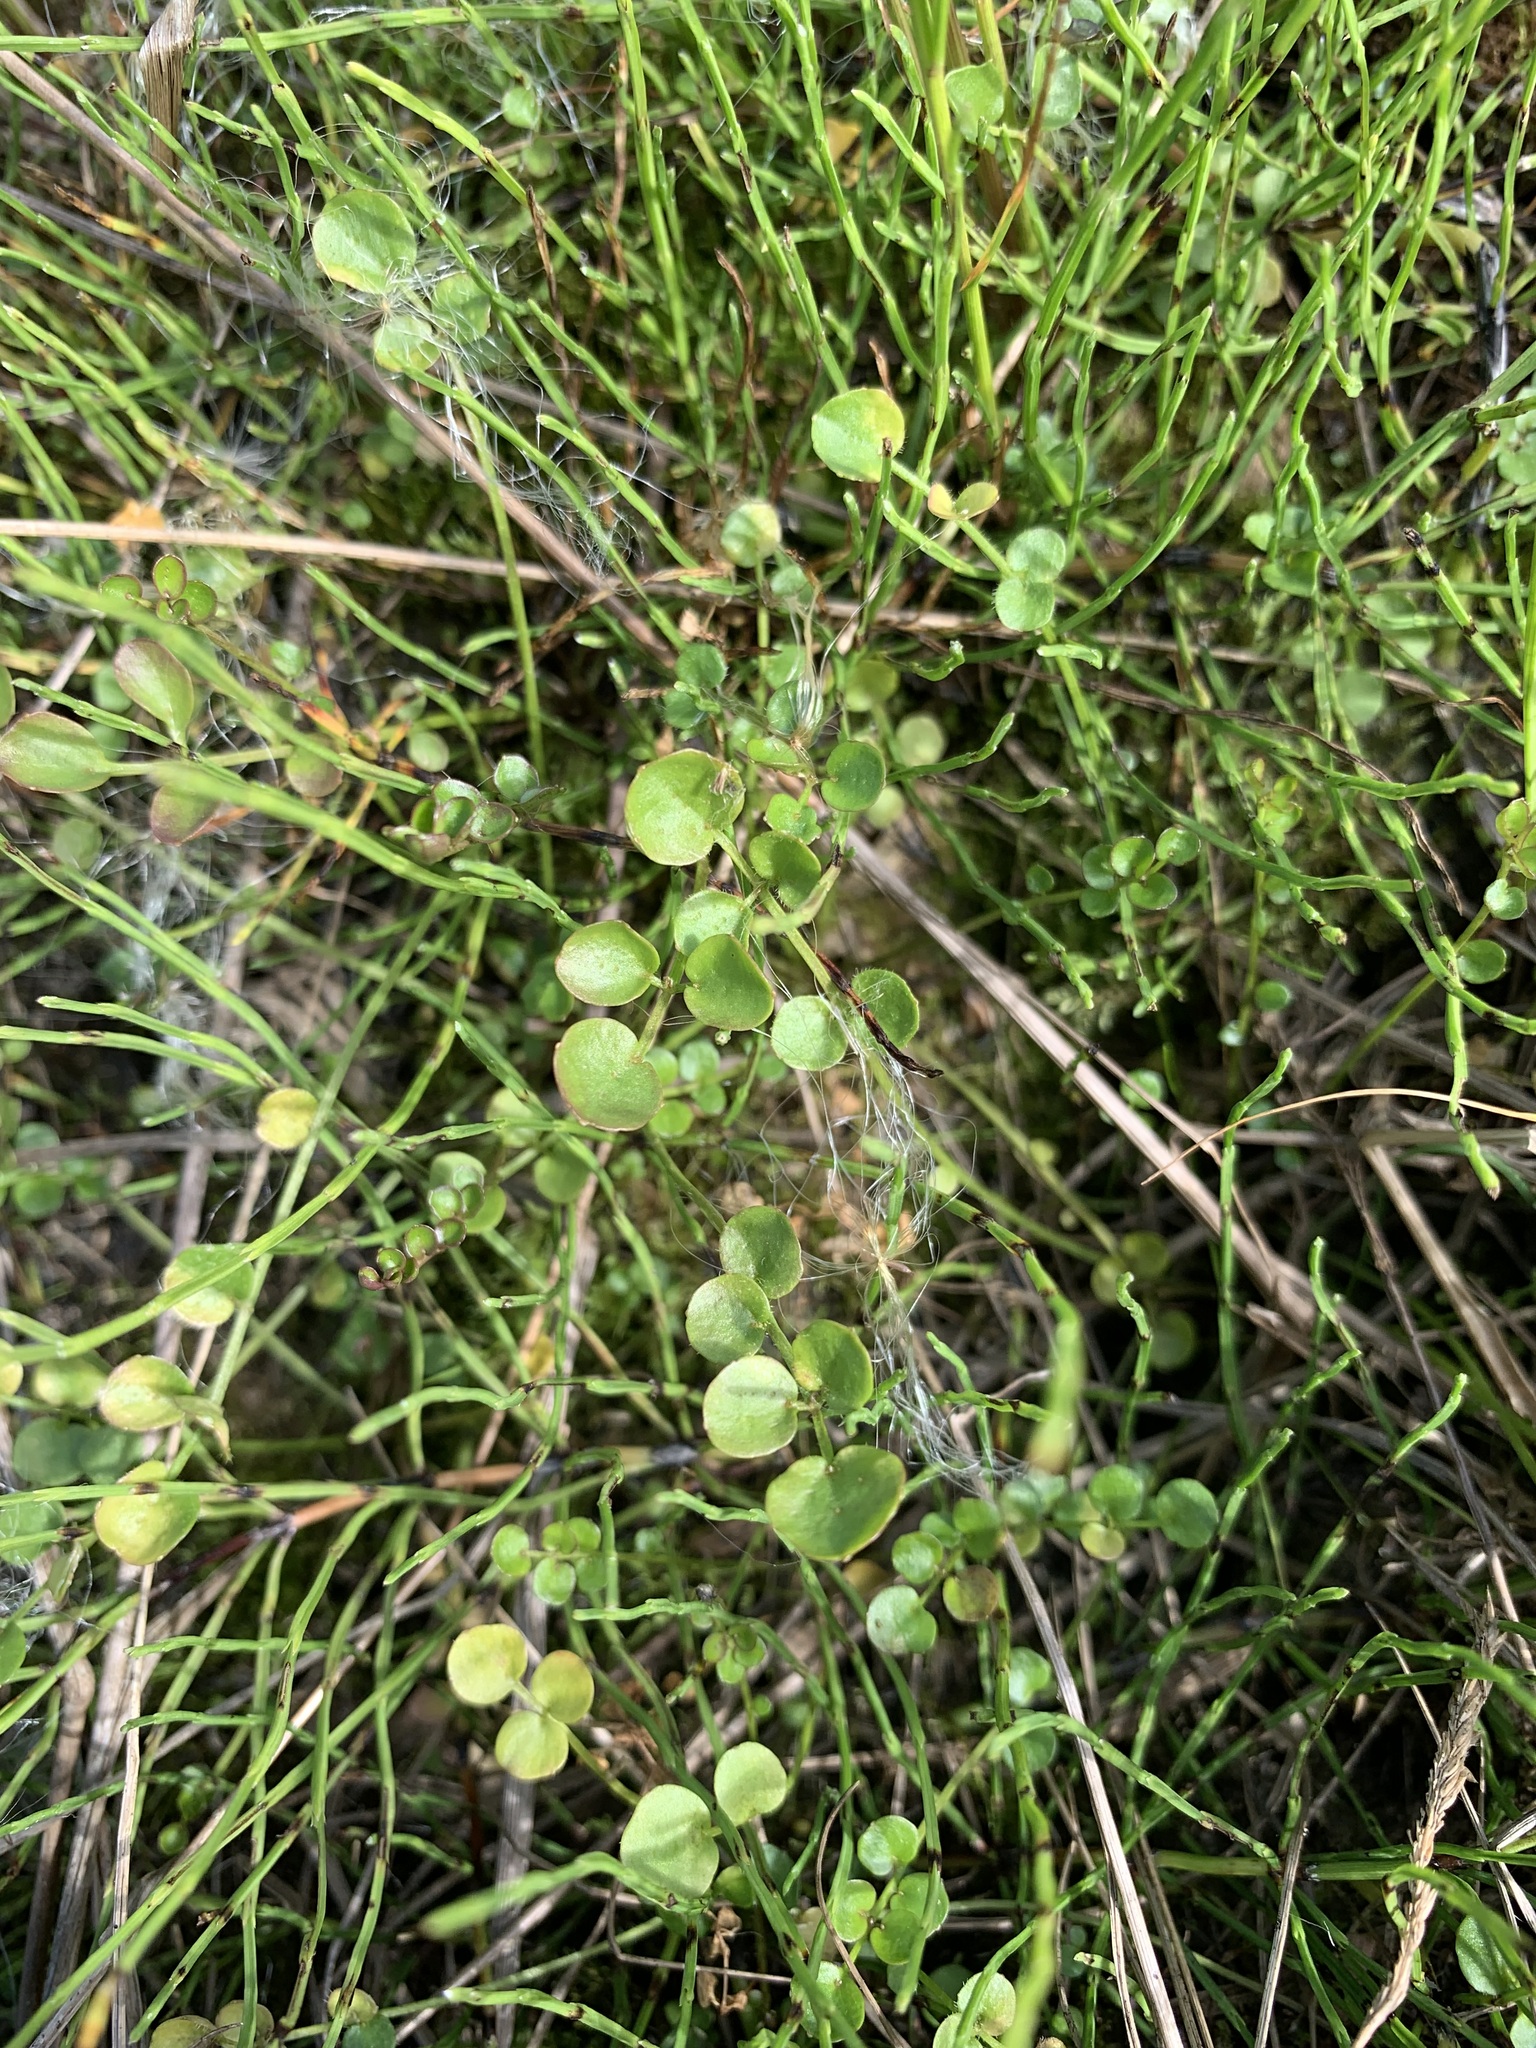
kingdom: Plantae
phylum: Tracheophyta
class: Magnoliopsida
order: Brassicales
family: Brassicaceae
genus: Cardamine
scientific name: Cardamine pratensis
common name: Cuckoo flower
